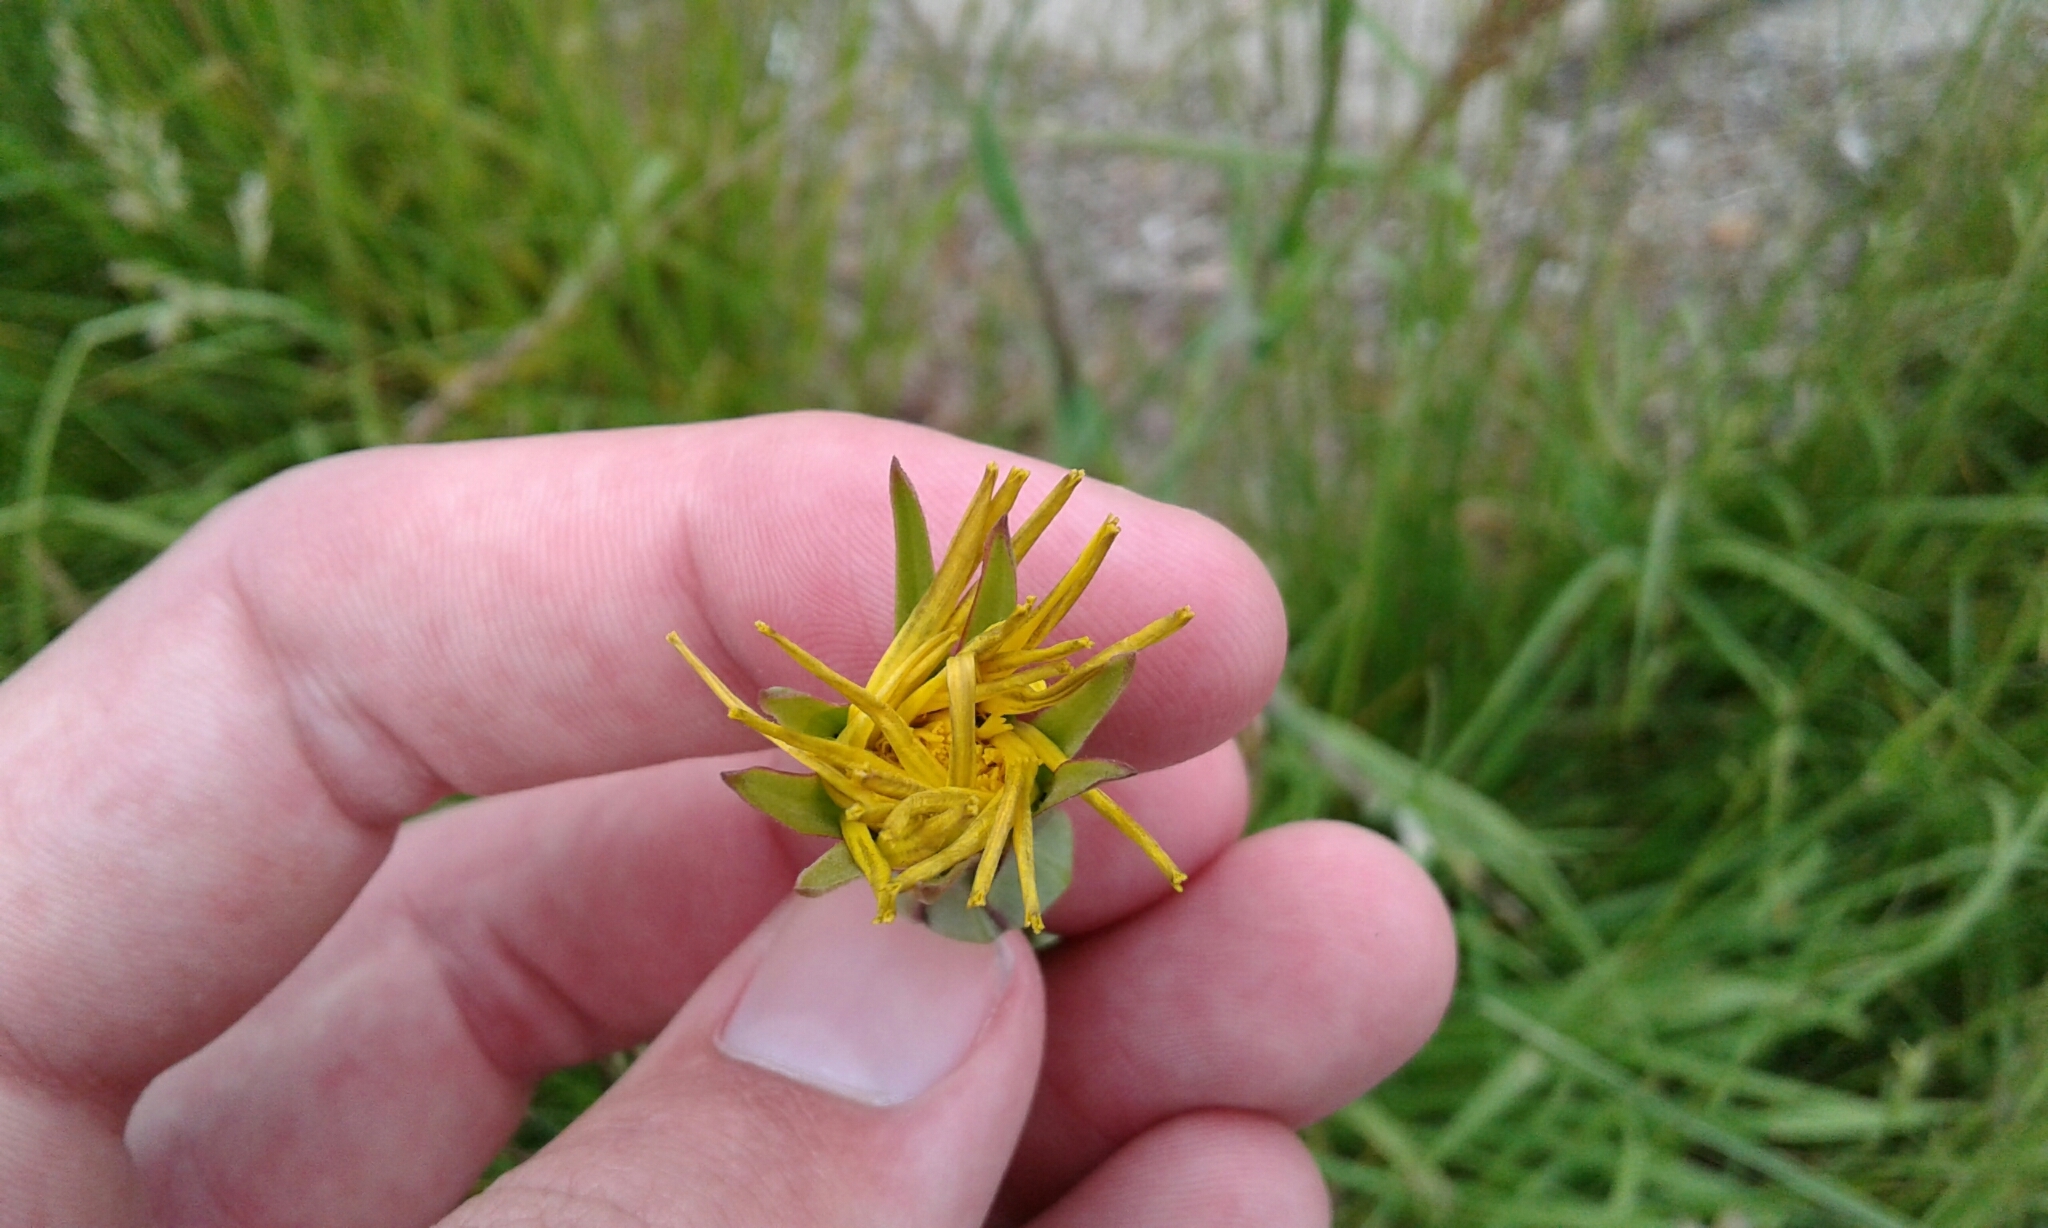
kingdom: Plantae
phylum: Tracheophyta
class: Magnoliopsida
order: Asterales
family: Asteraceae
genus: Tragopogon
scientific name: Tragopogon pratensis
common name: Goat's-beard
